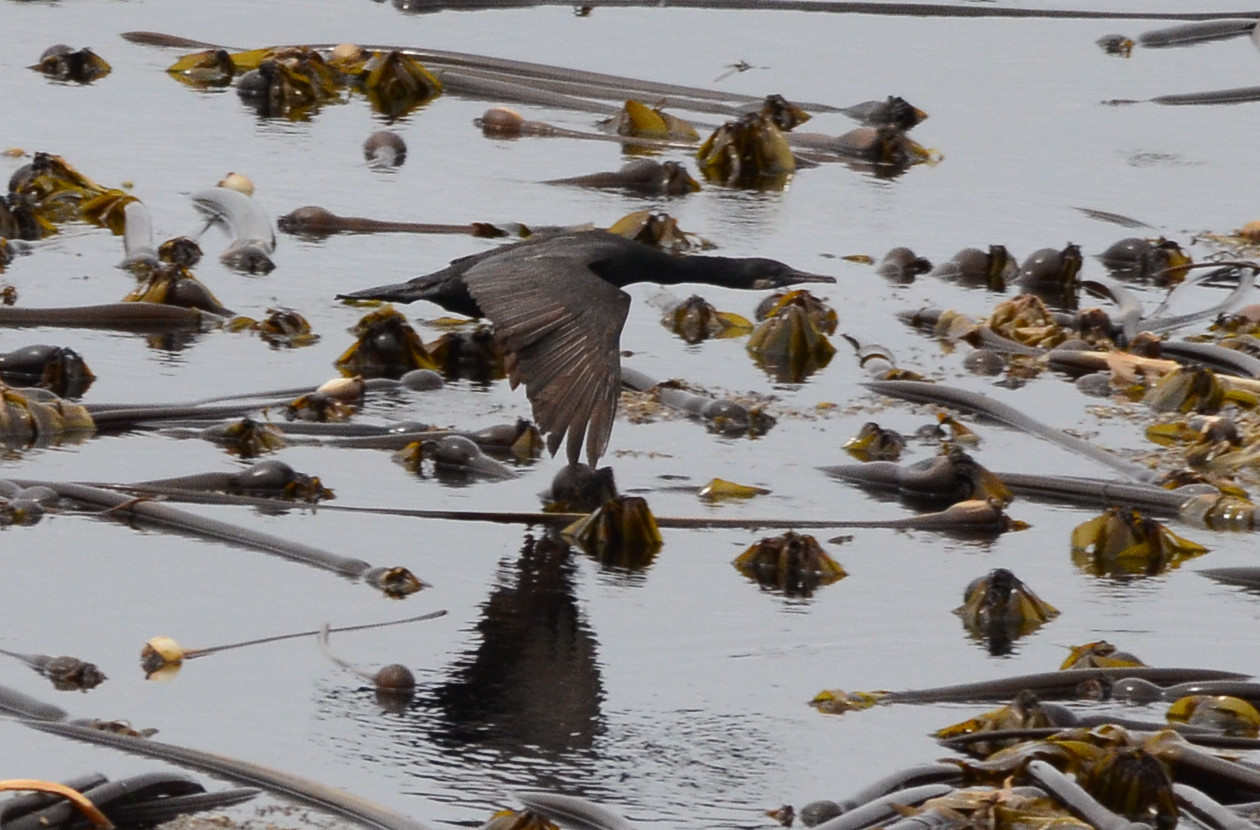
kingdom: Animalia
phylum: Chordata
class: Aves
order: Suliformes
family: Phalacrocoracidae
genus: Urile
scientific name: Urile penicillatus
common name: Brandt's cormorant
